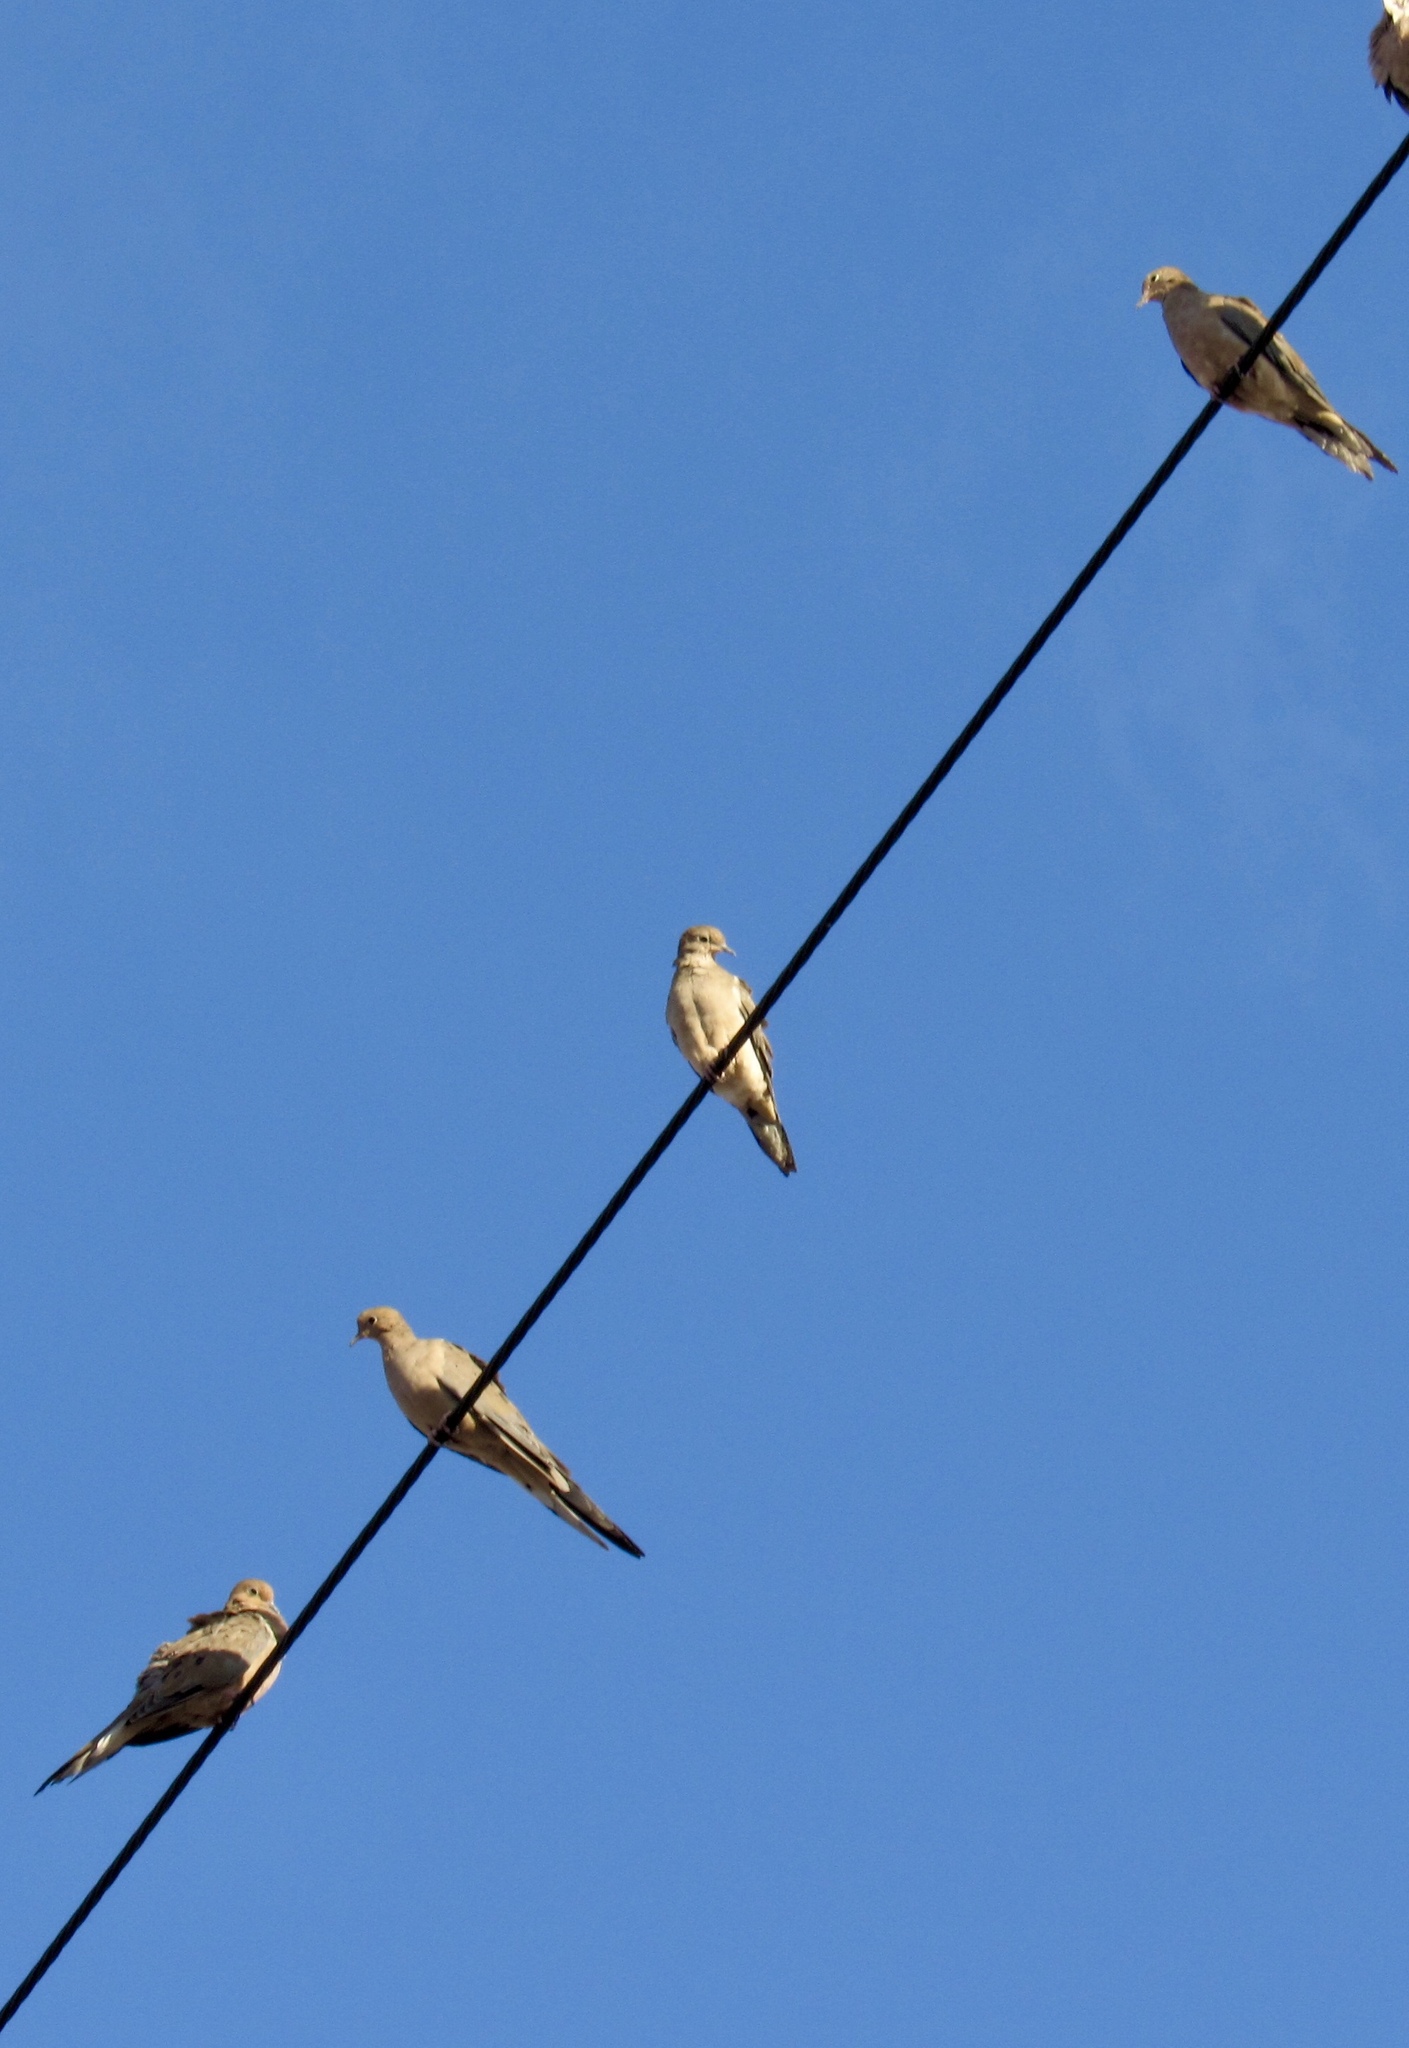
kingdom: Animalia
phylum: Chordata
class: Aves
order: Columbiformes
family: Columbidae
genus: Zenaida
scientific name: Zenaida macroura
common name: Mourning dove
